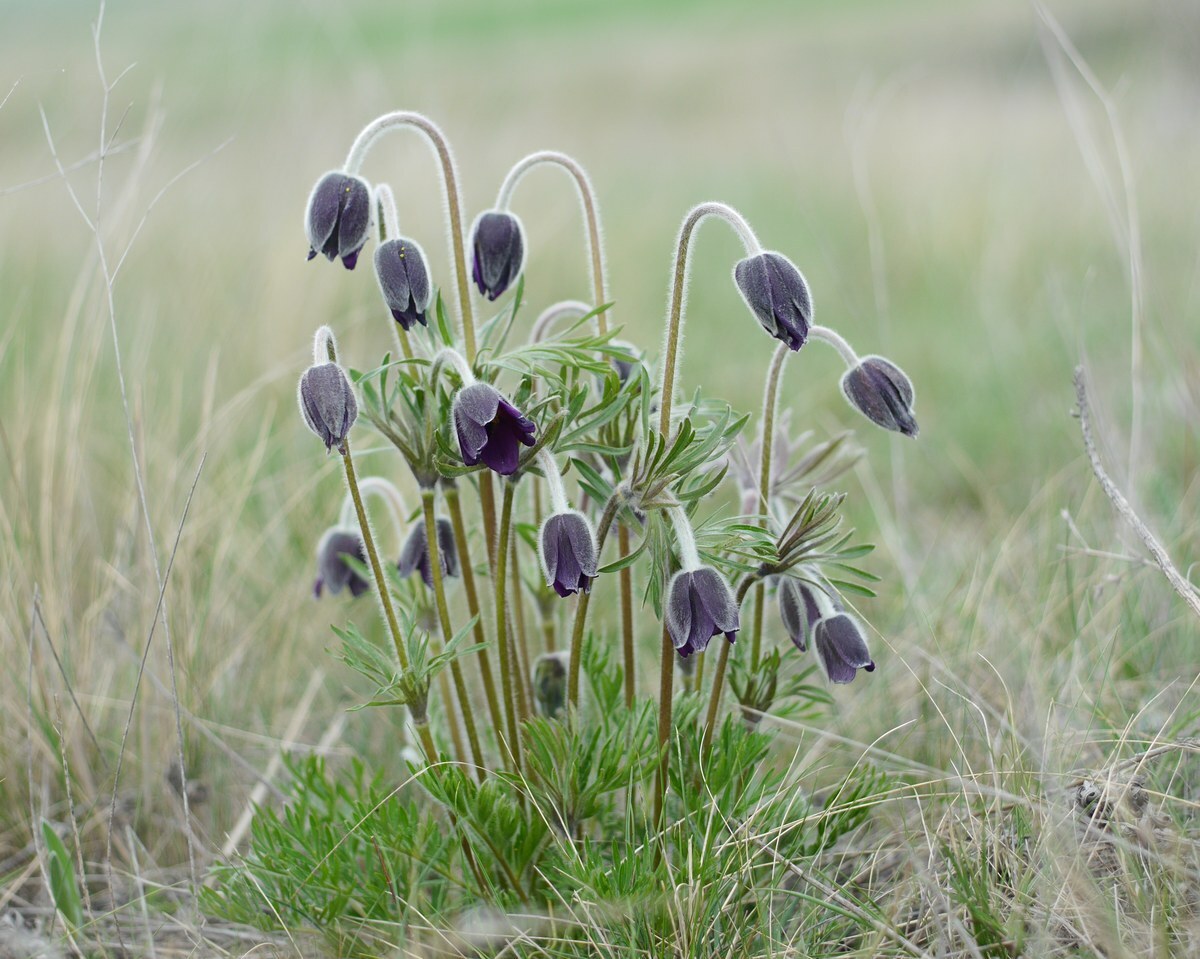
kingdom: Plantae
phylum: Tracheophyta
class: Magnoliopsida
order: Ranunculales
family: Ranunculaceae
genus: Pulsatilla
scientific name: Pulsatilla pratensis
